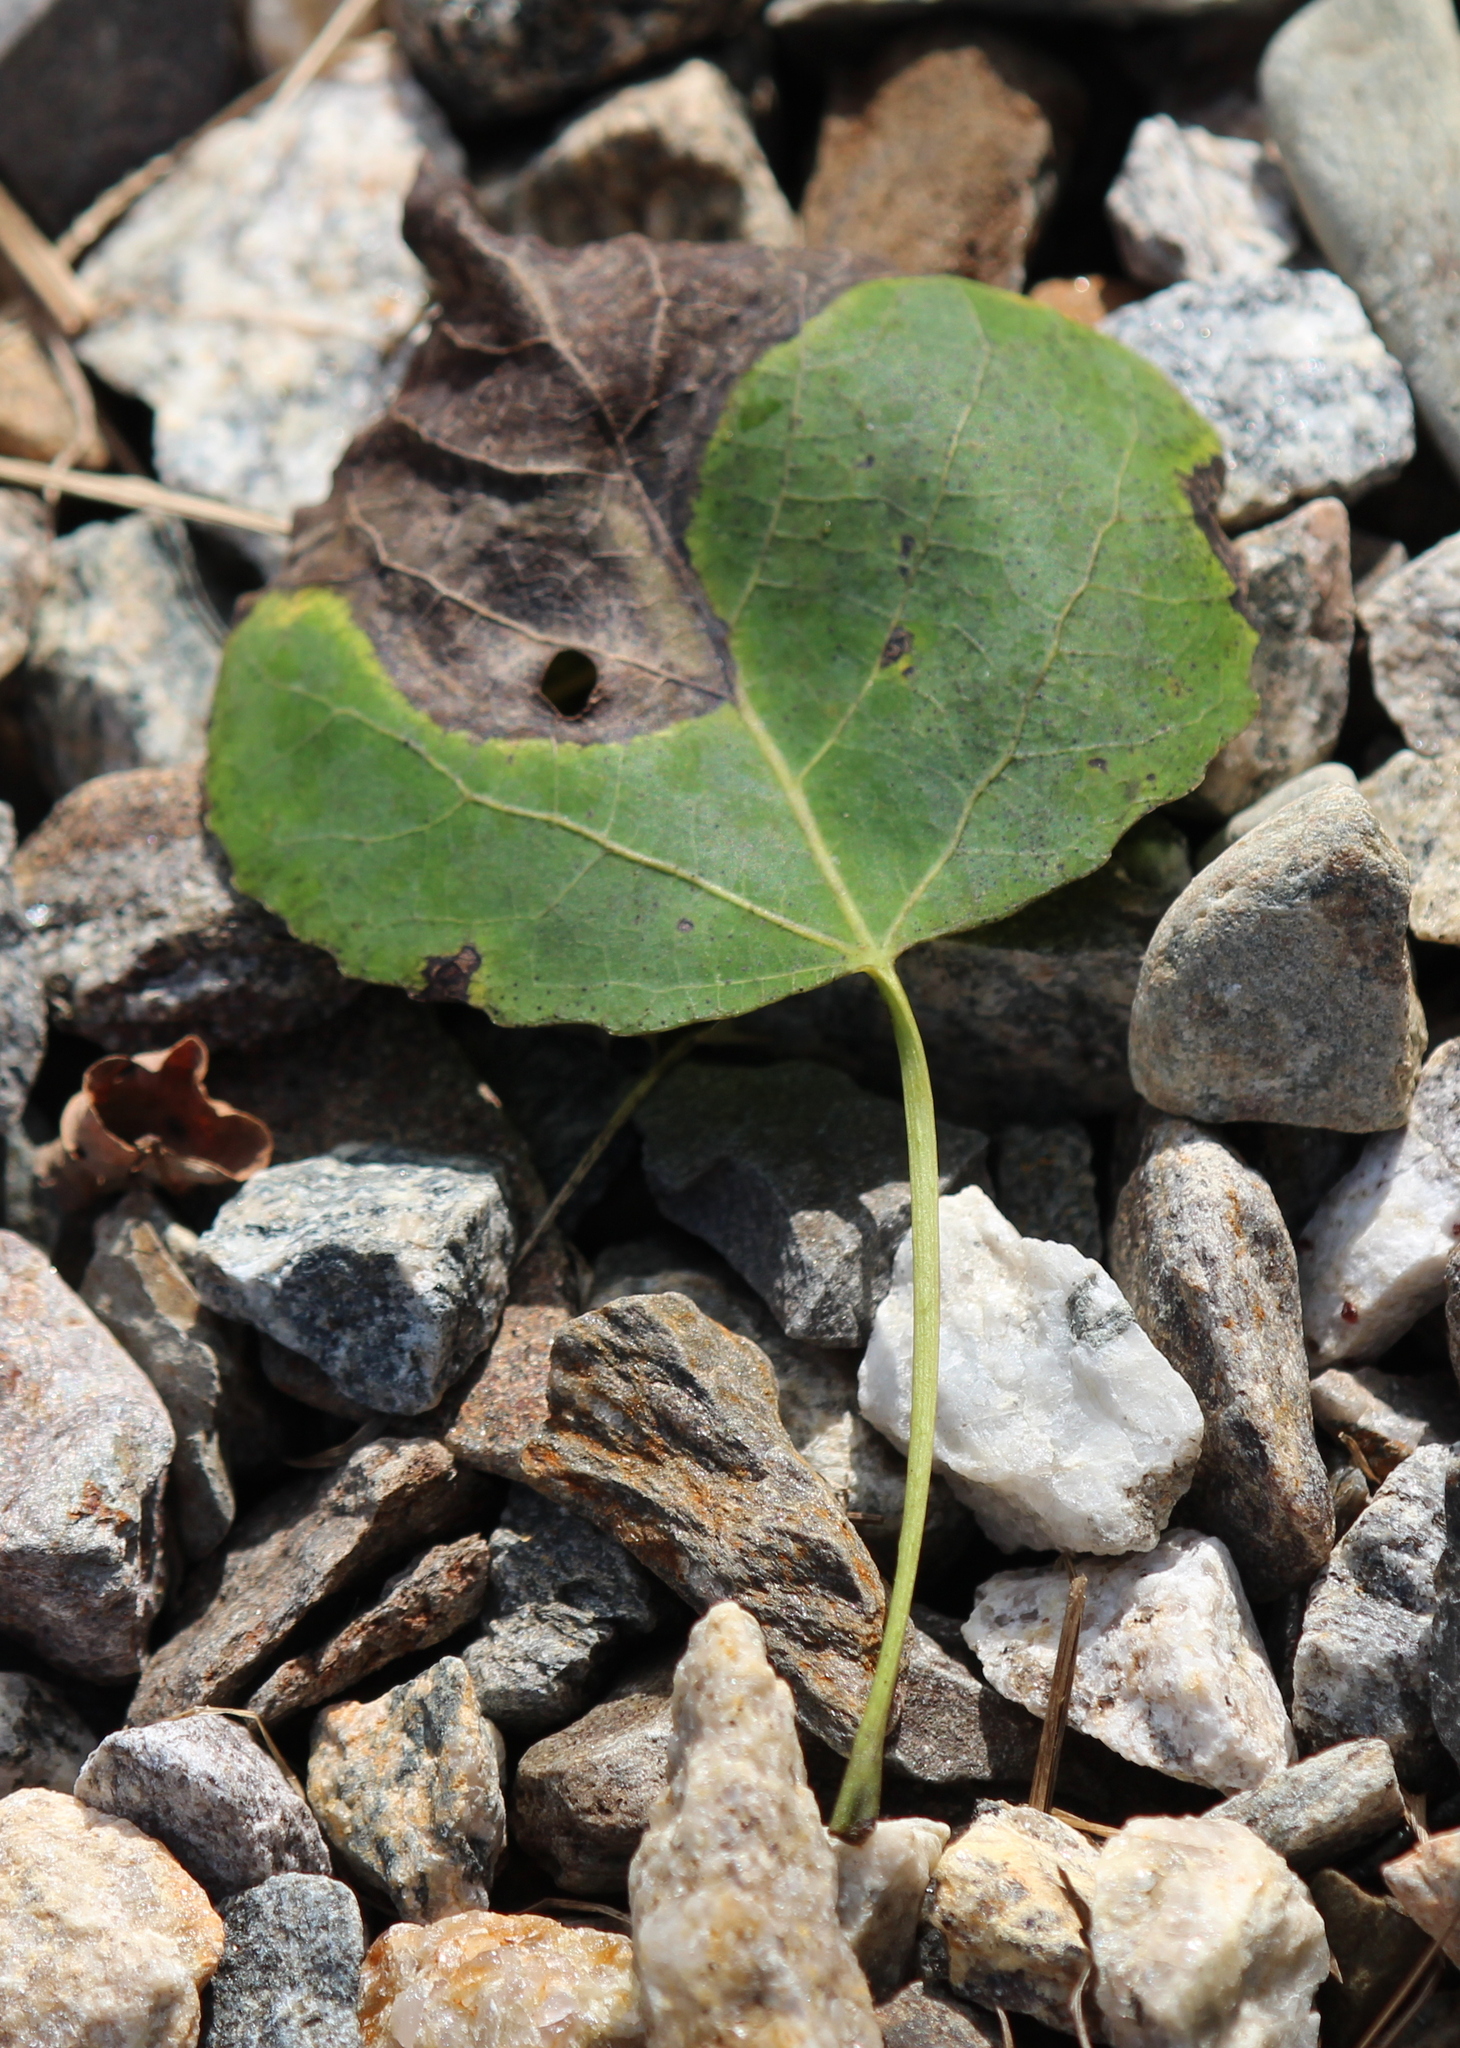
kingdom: Plantae
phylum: Tracheophyta
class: Magnoliopsida
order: Malpighiales
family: Salicaceae
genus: Populus
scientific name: Populus tremuloides
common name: Quaking aspen
